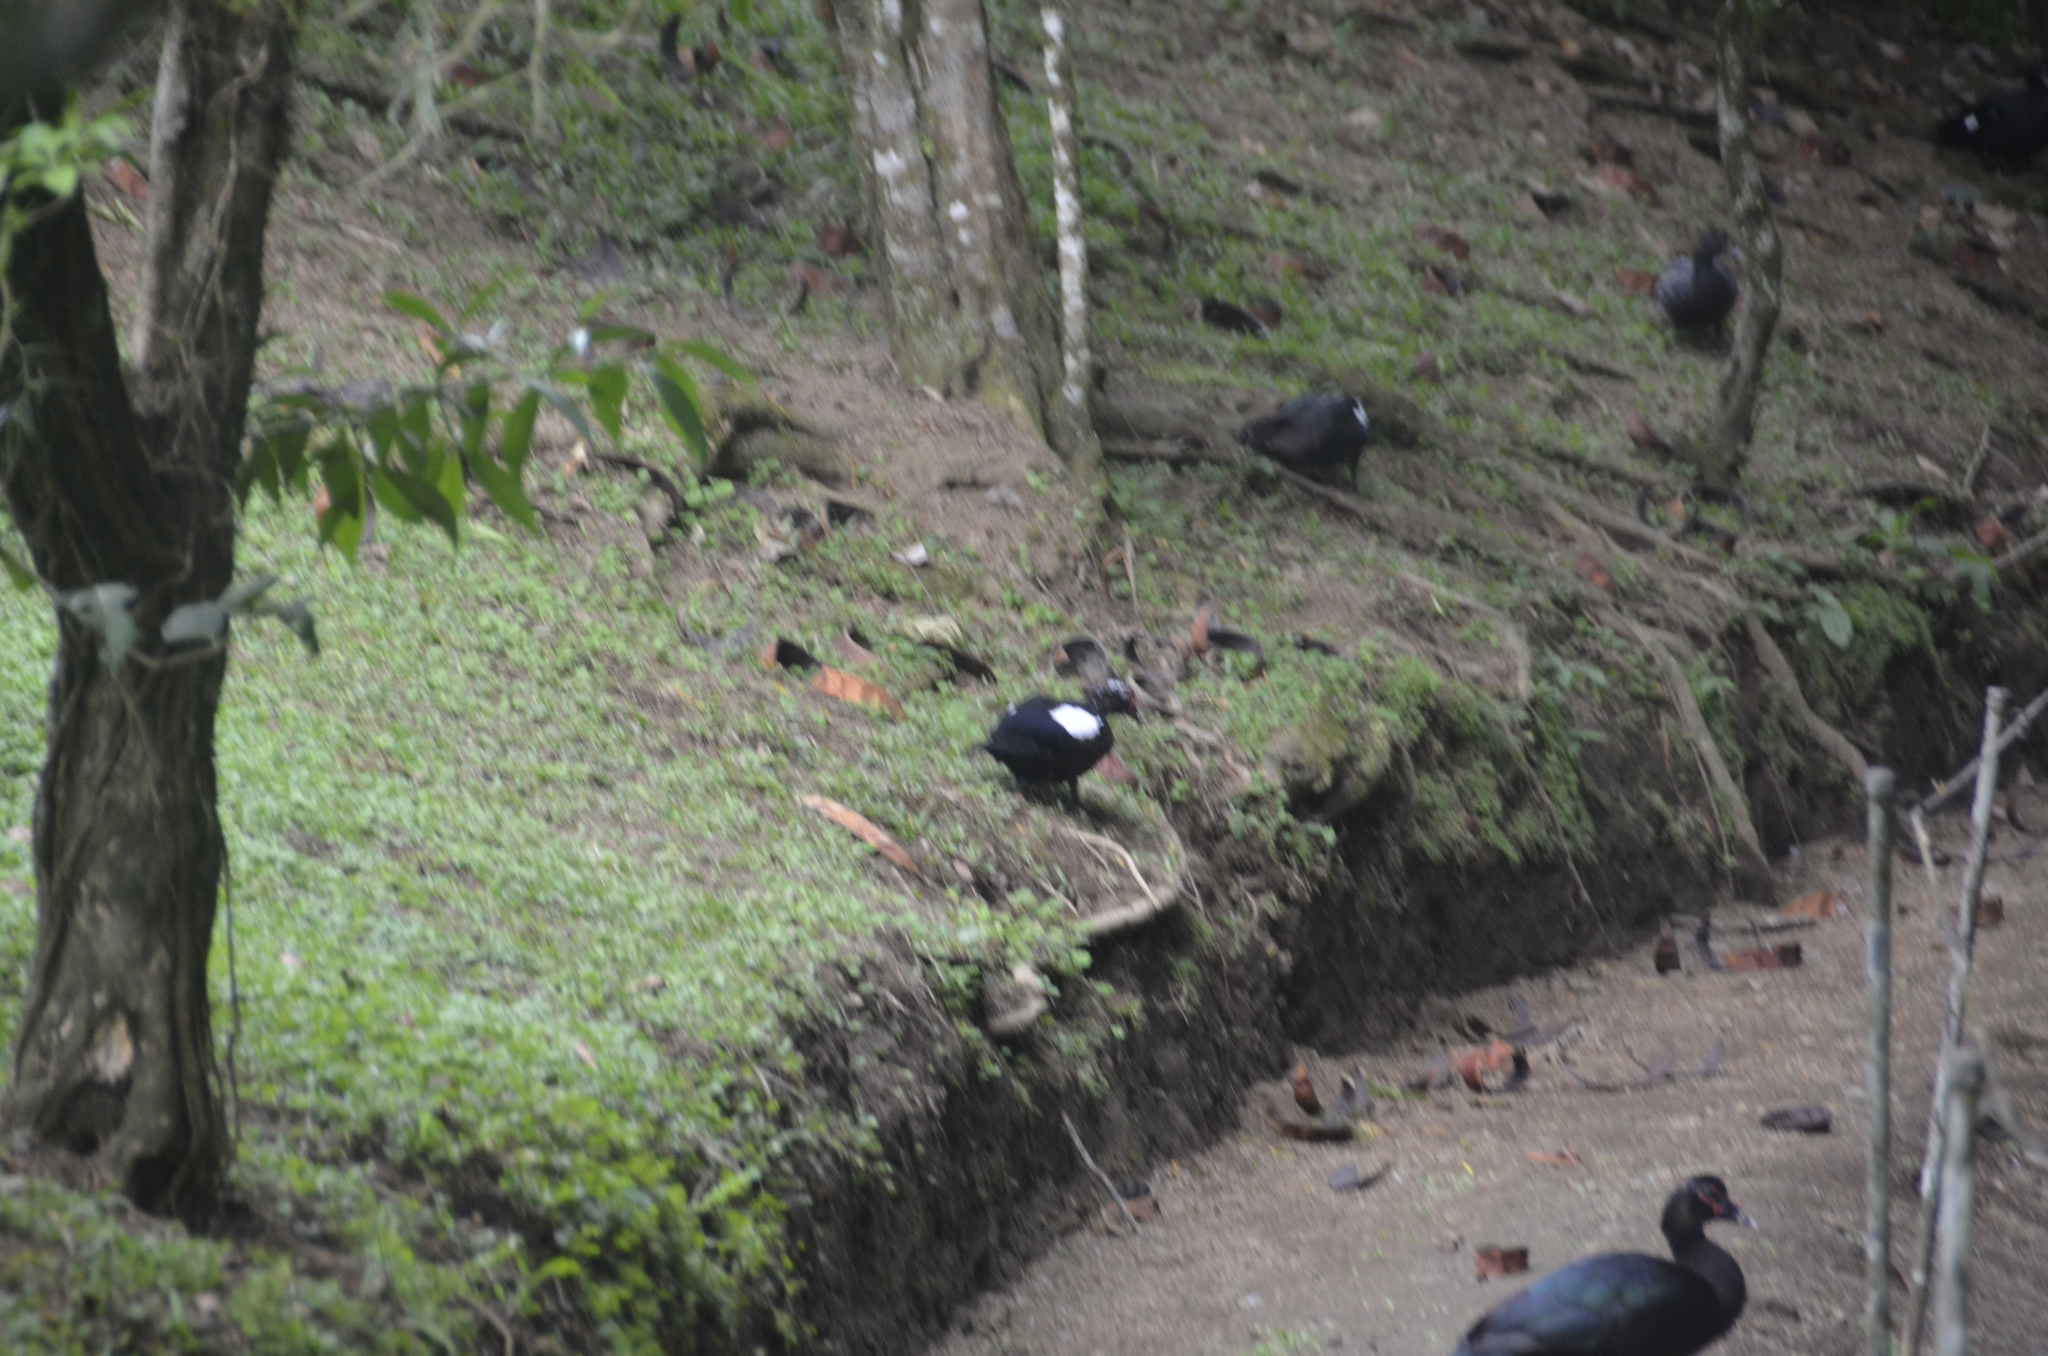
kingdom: Animalia
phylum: Chordata
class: Aves
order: Anseriformes
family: Anatidae
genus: Cairina
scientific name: Cairina moschata
